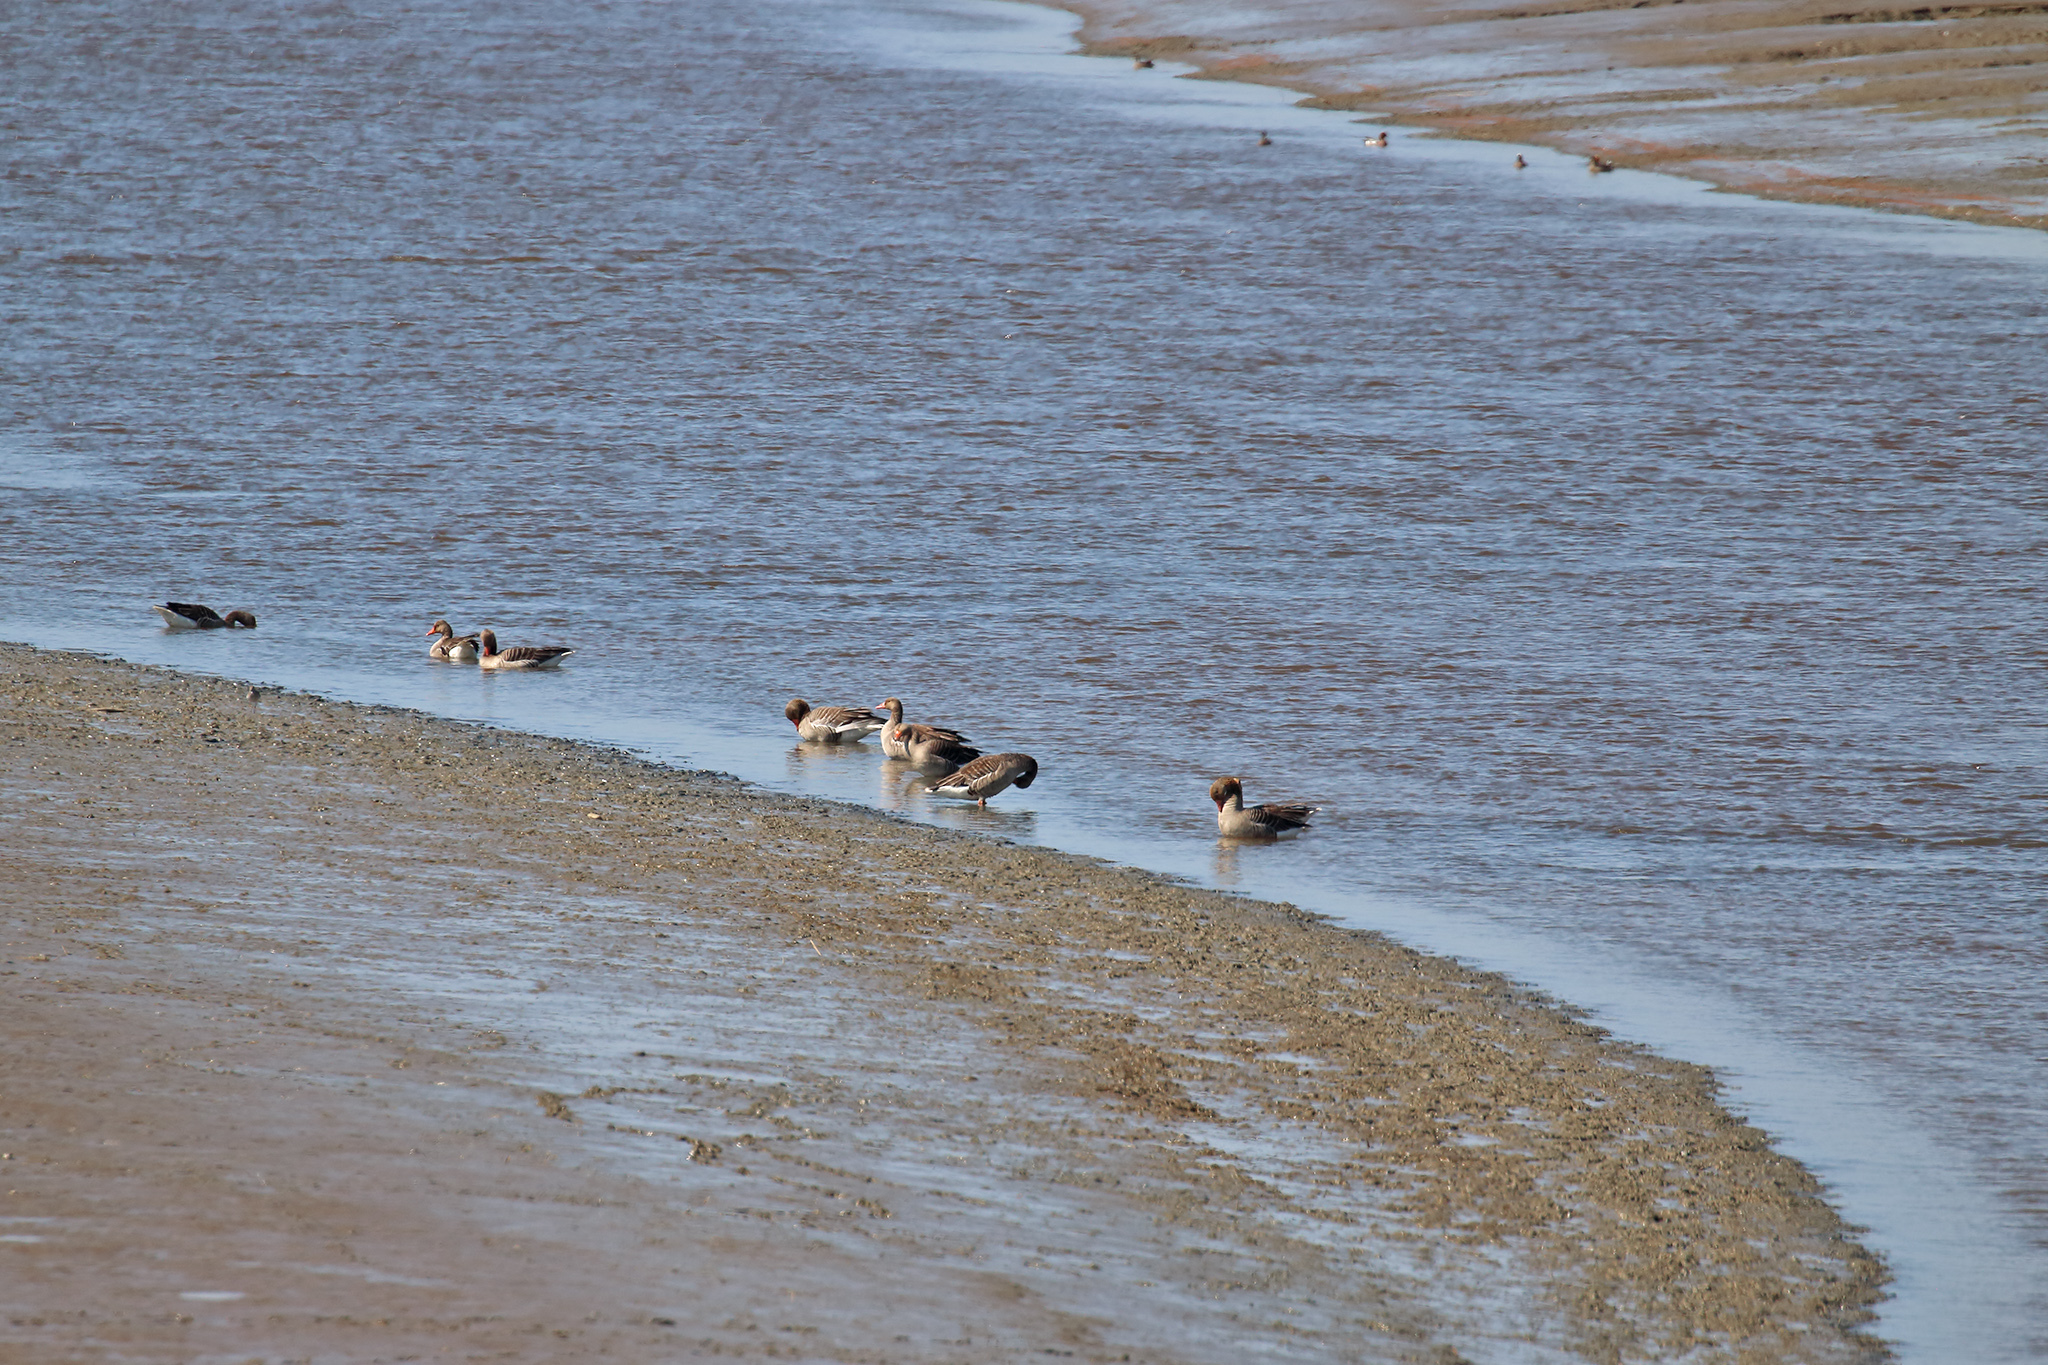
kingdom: Animalia
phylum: Chordata
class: Aves
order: Anseriformes
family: Anatidae
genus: Anser
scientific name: Anser anser
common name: Greylag goose
